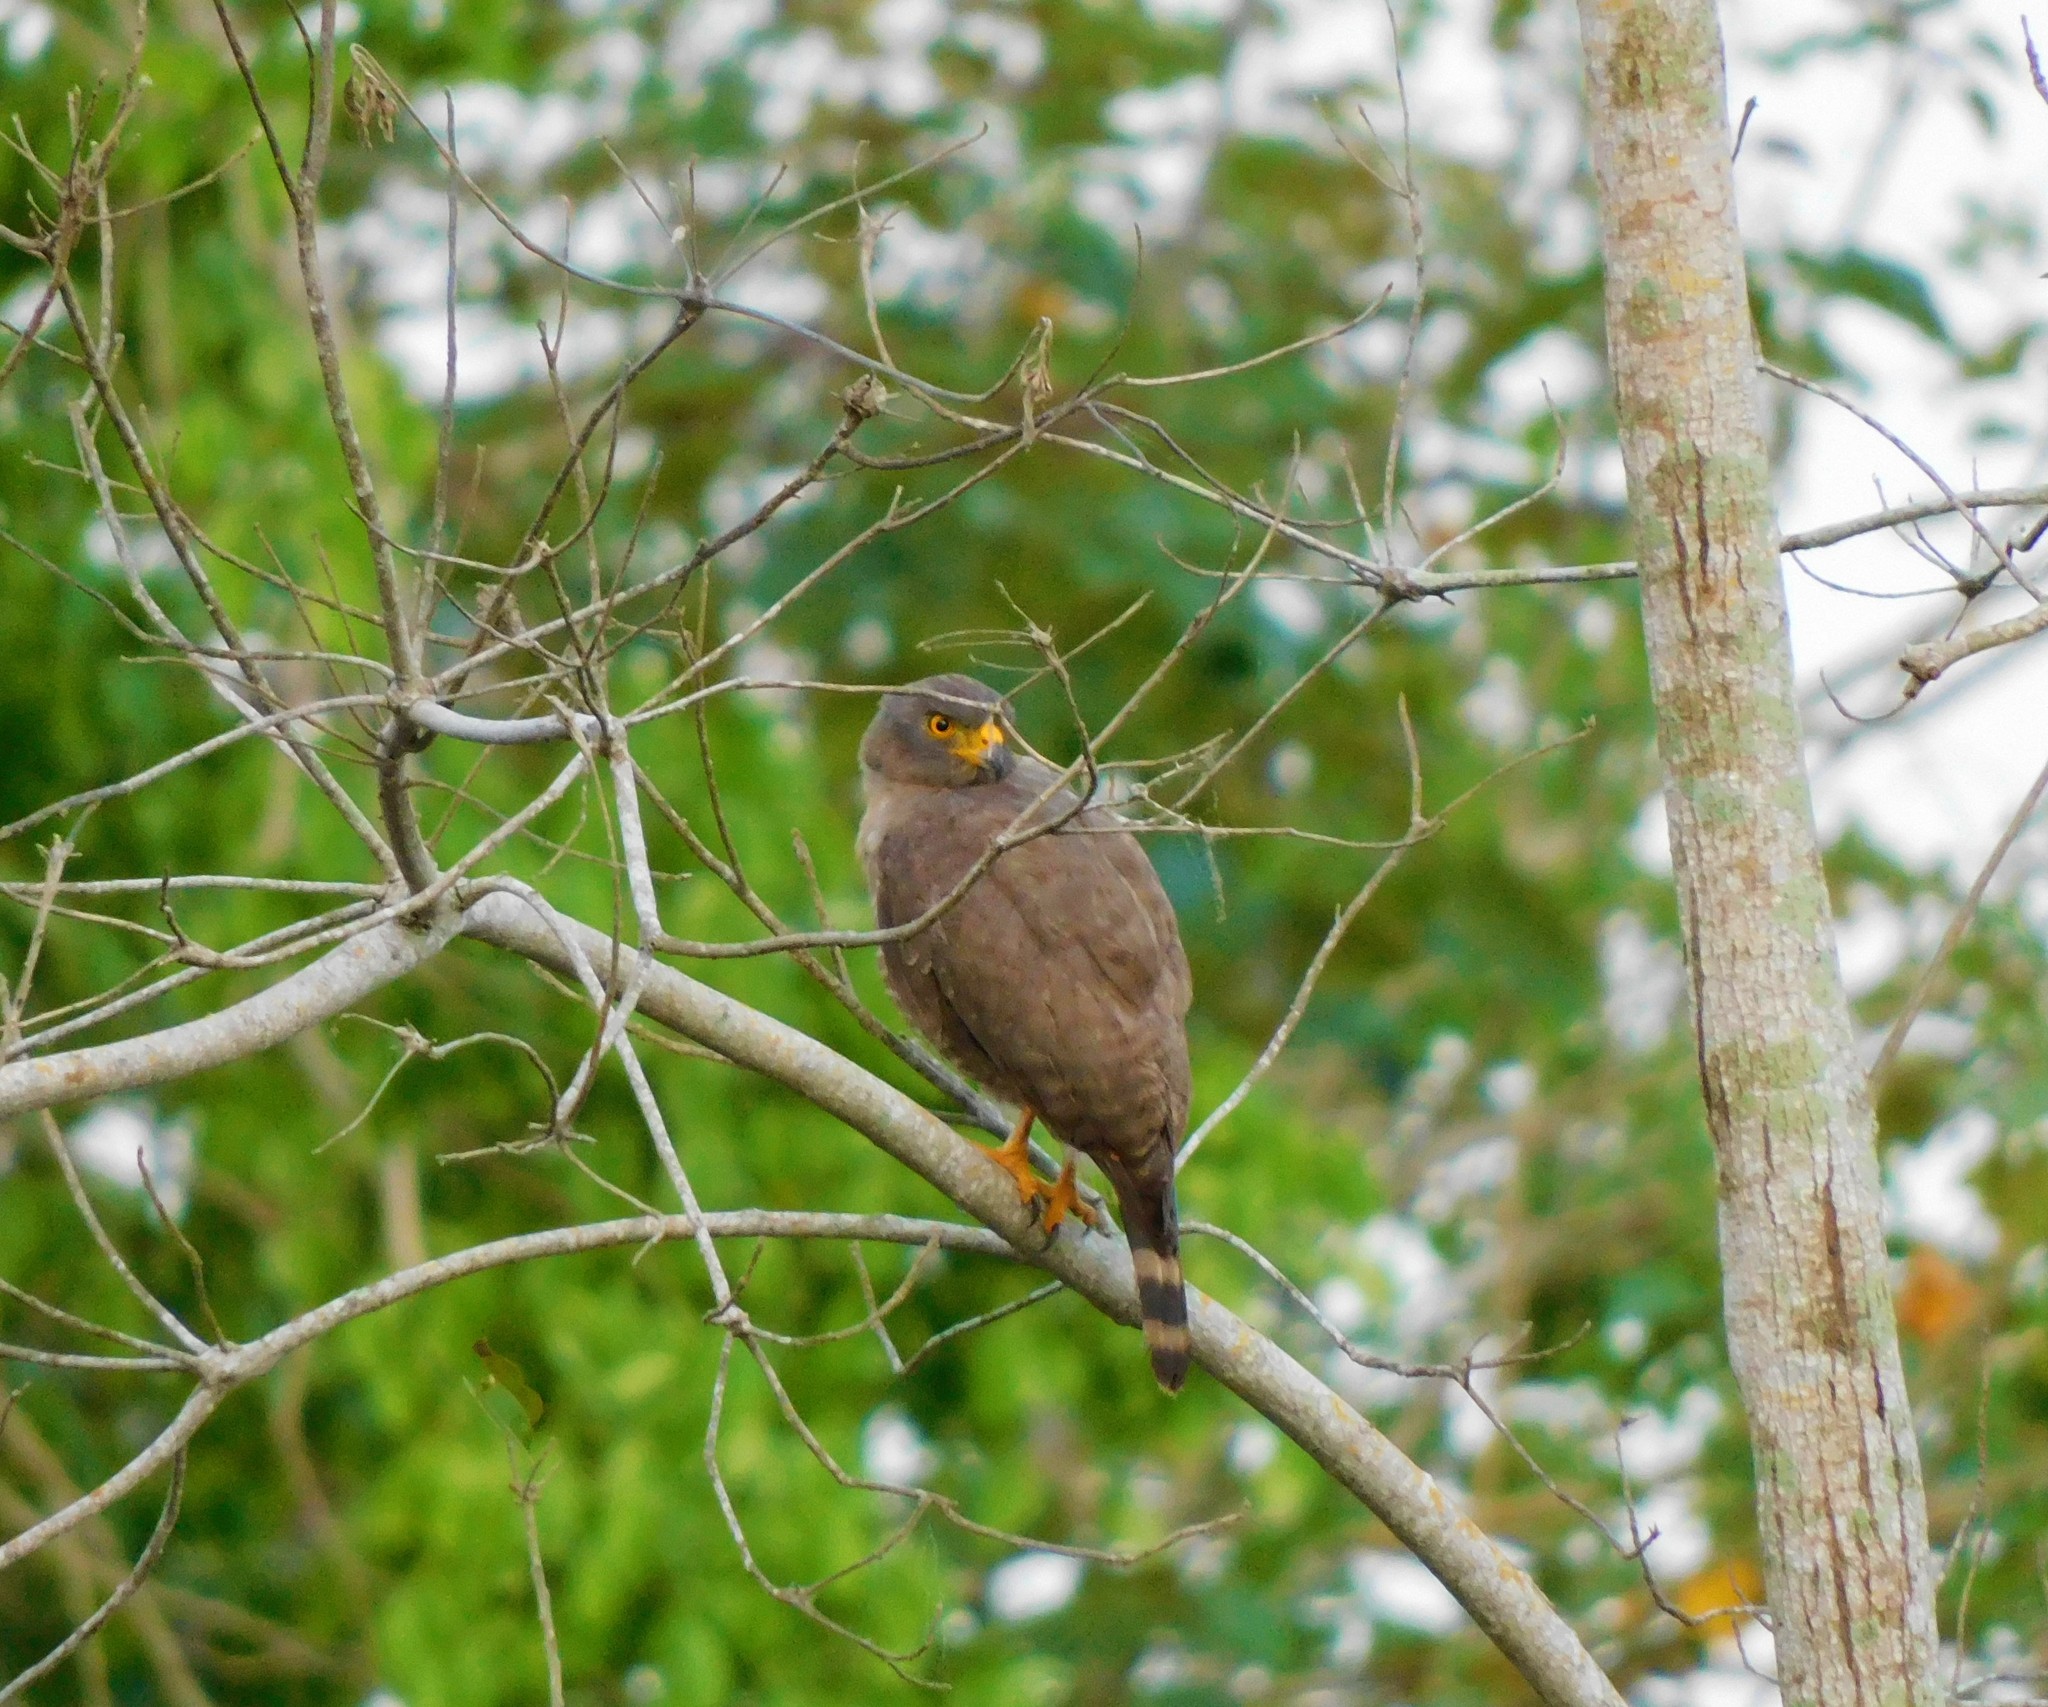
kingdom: Animalia
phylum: Chordata
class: Aves
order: Accipitriformes
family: Accipitridae
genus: Rupornis
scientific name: Rupornis magnirostris
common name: Roadside hawk
